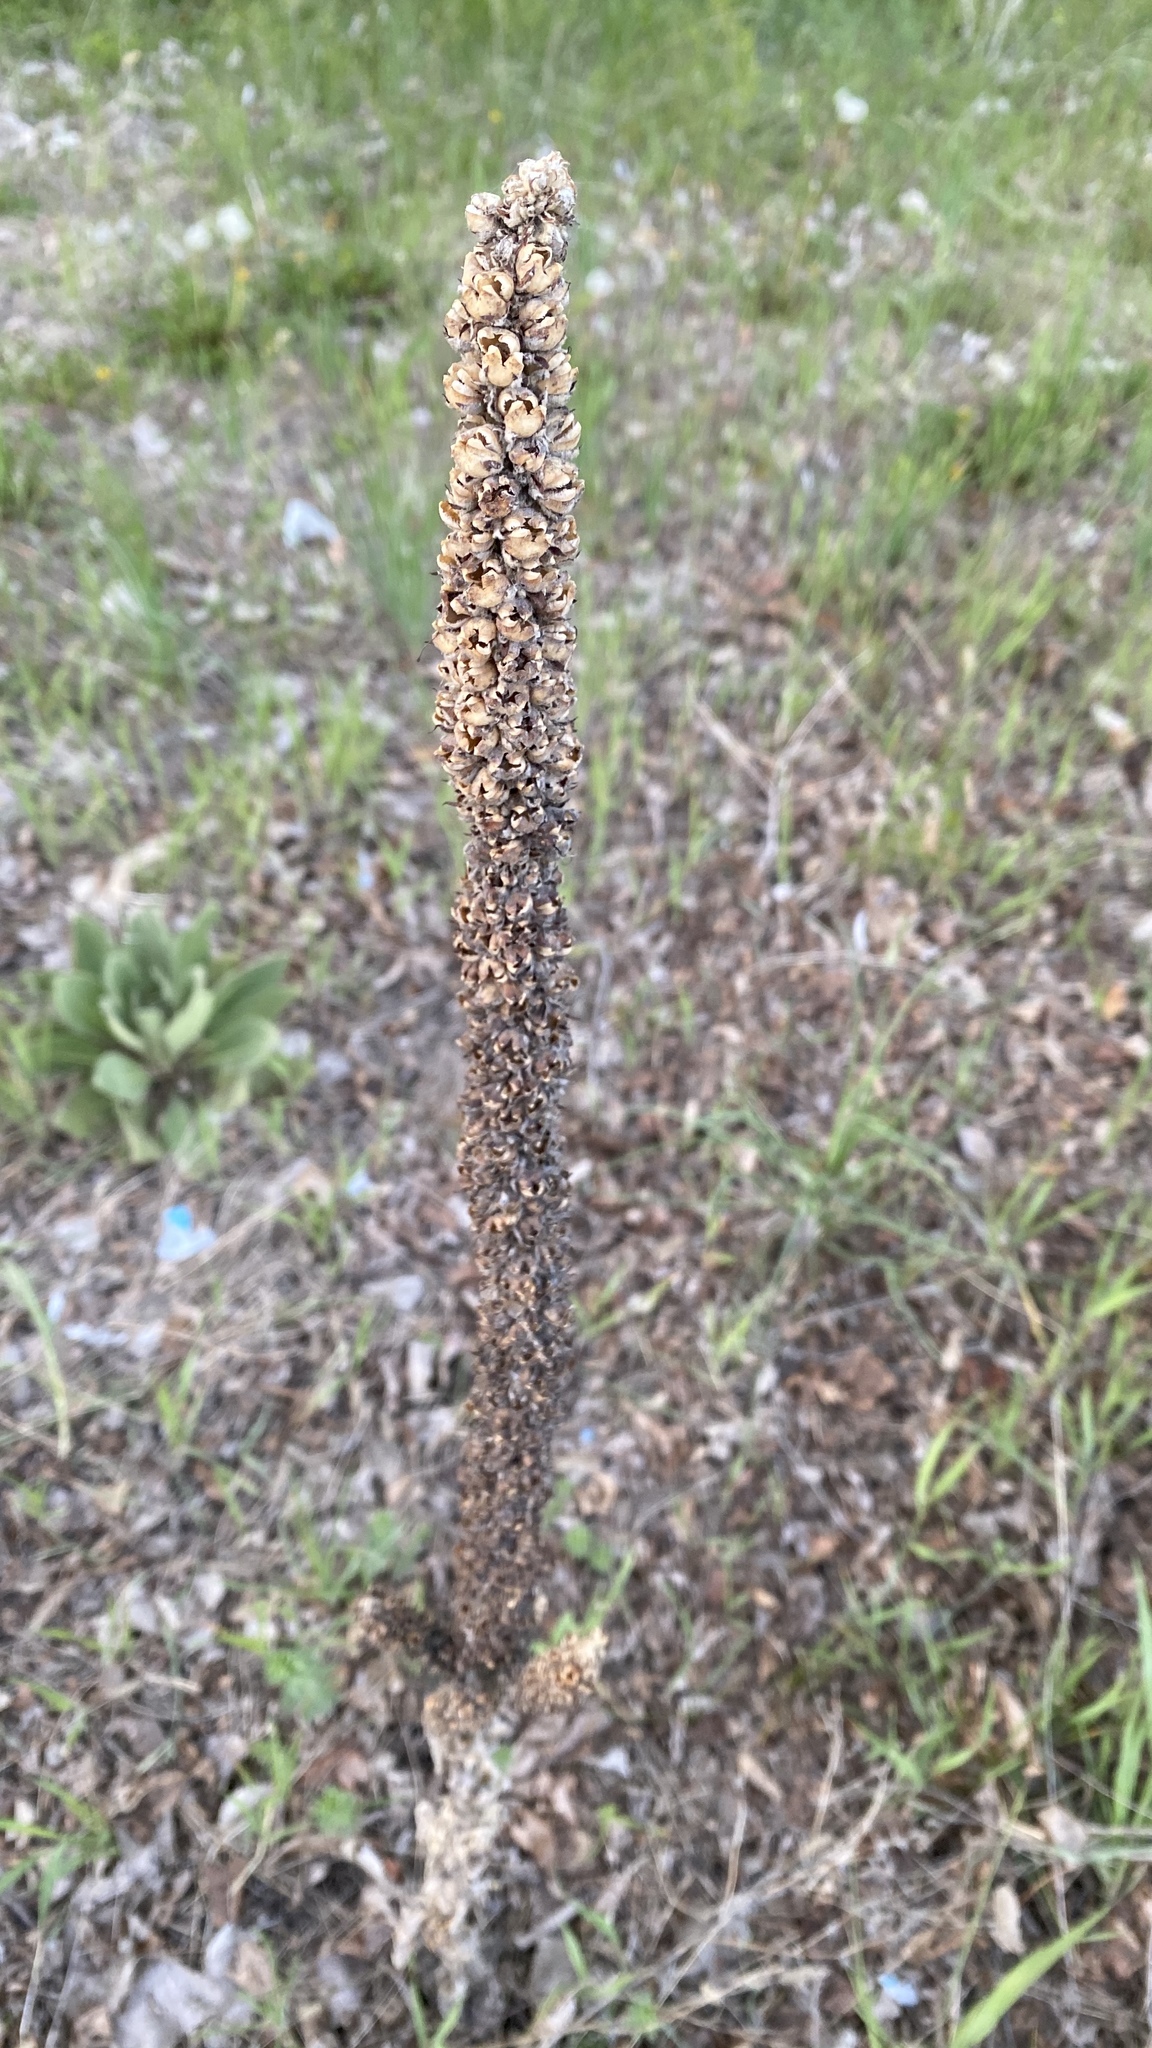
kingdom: Plantae
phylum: Tracheophyta
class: Magnoliopsida
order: Lamiales
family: Scrophulariaceae
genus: Verbascum
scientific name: Verbascum thapsus
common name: Common mullein
